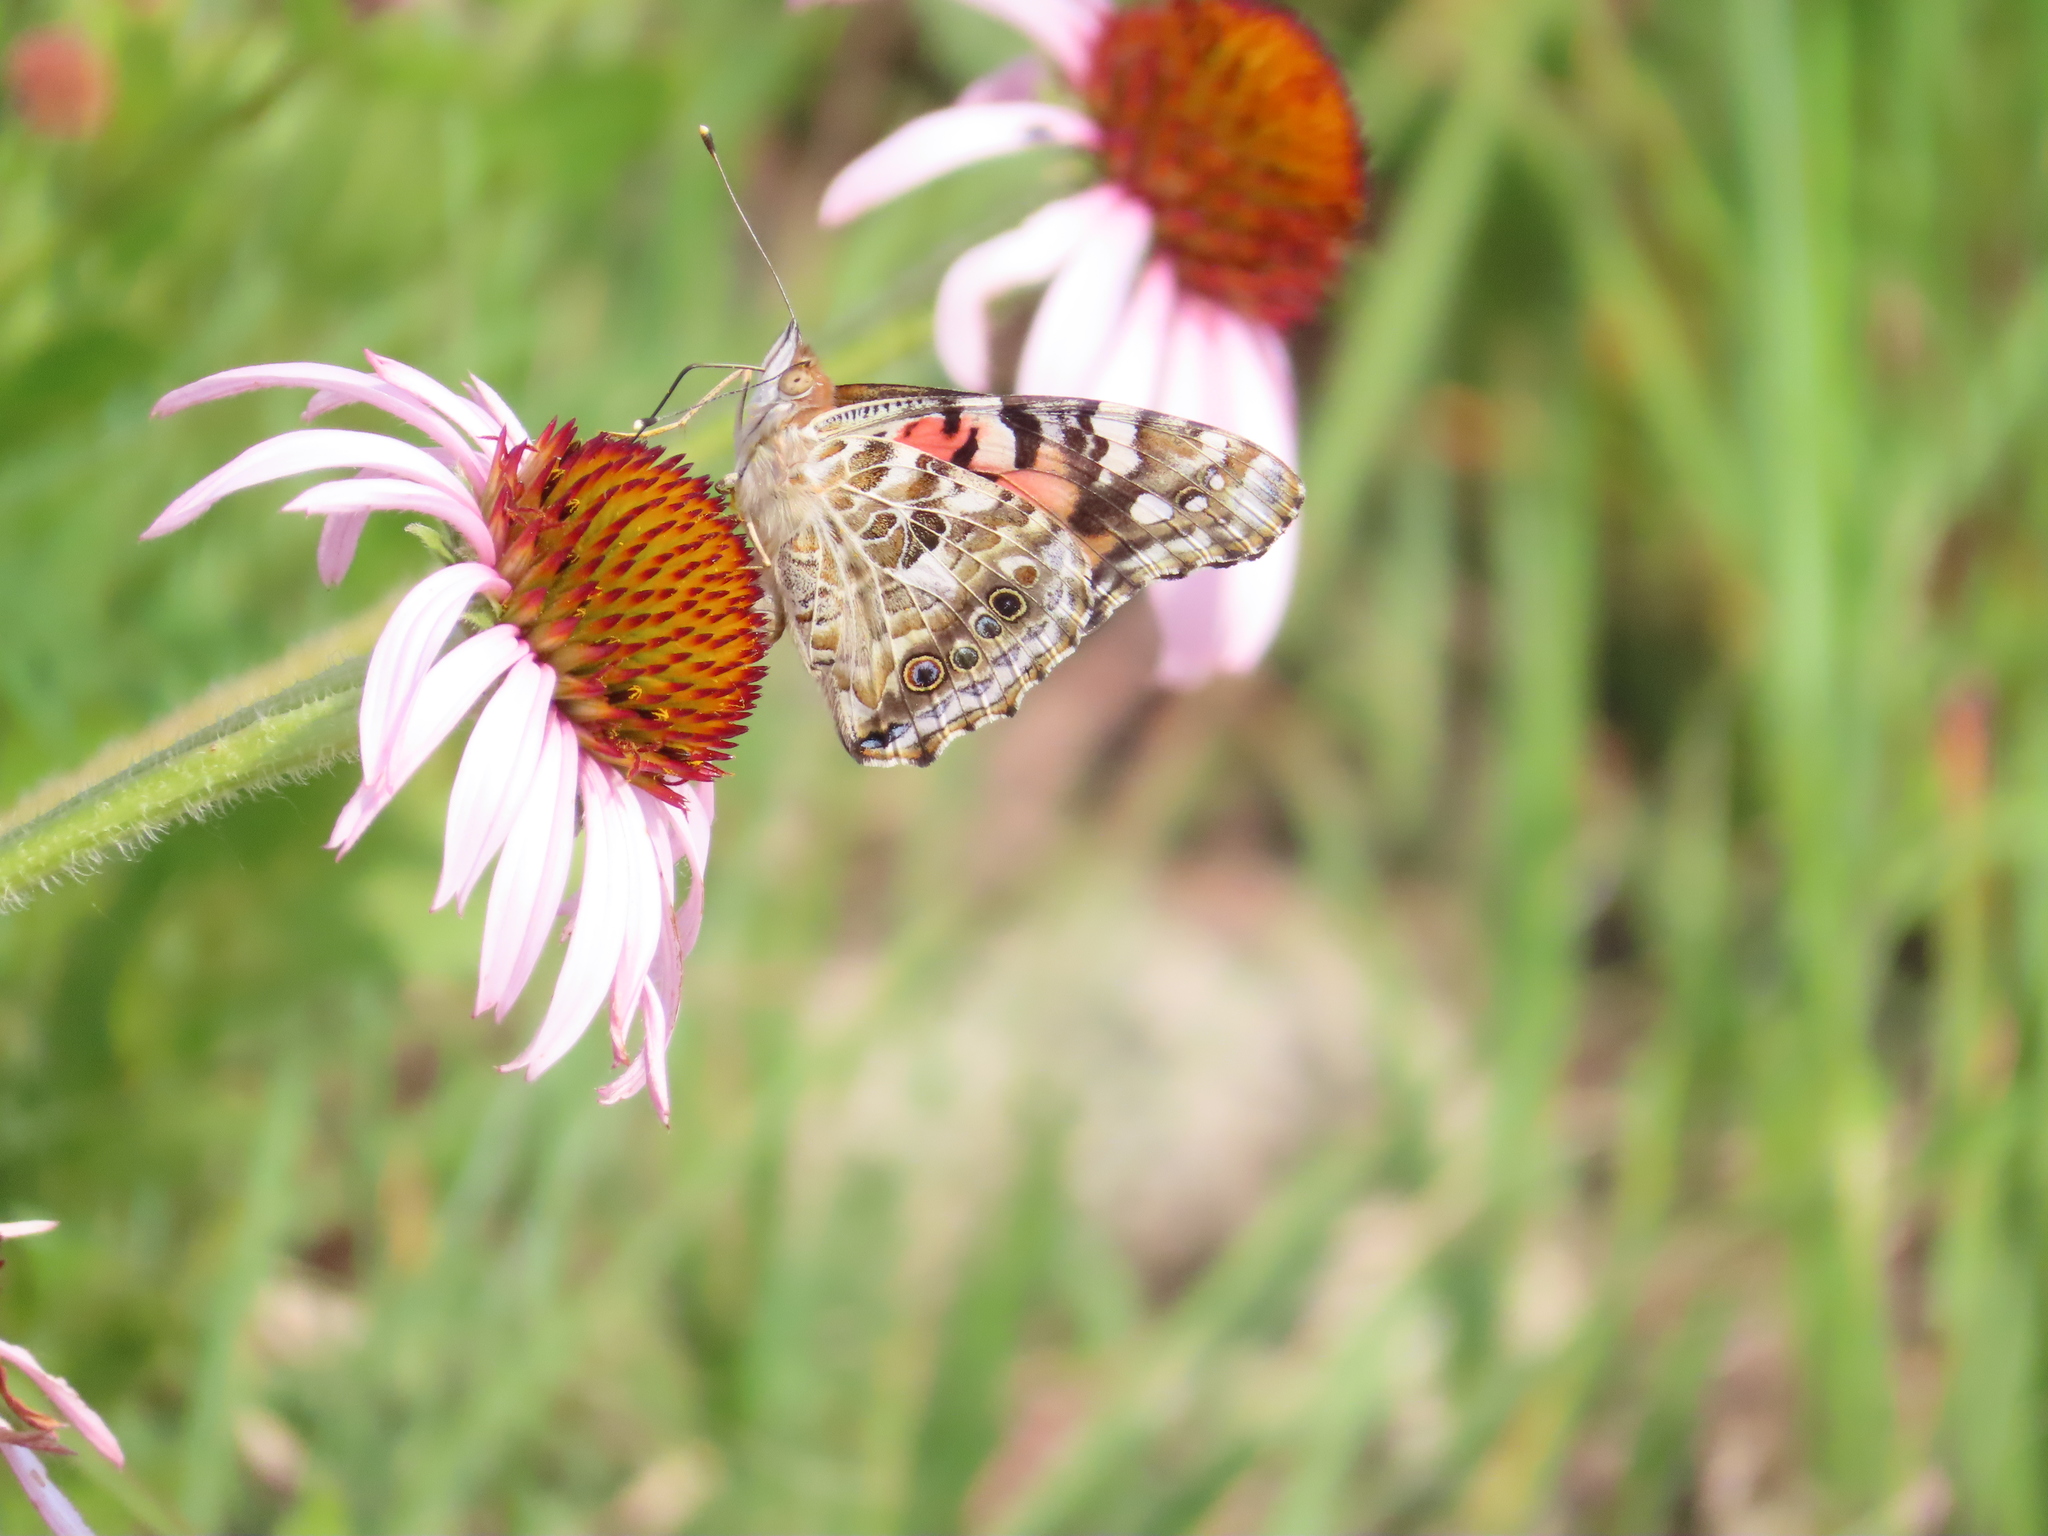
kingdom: Animalia
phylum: Arthropoda
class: Insecta
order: Lepidoptera
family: Nymphalidae
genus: Vanessa
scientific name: Vanessa cardui
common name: Painted lady
